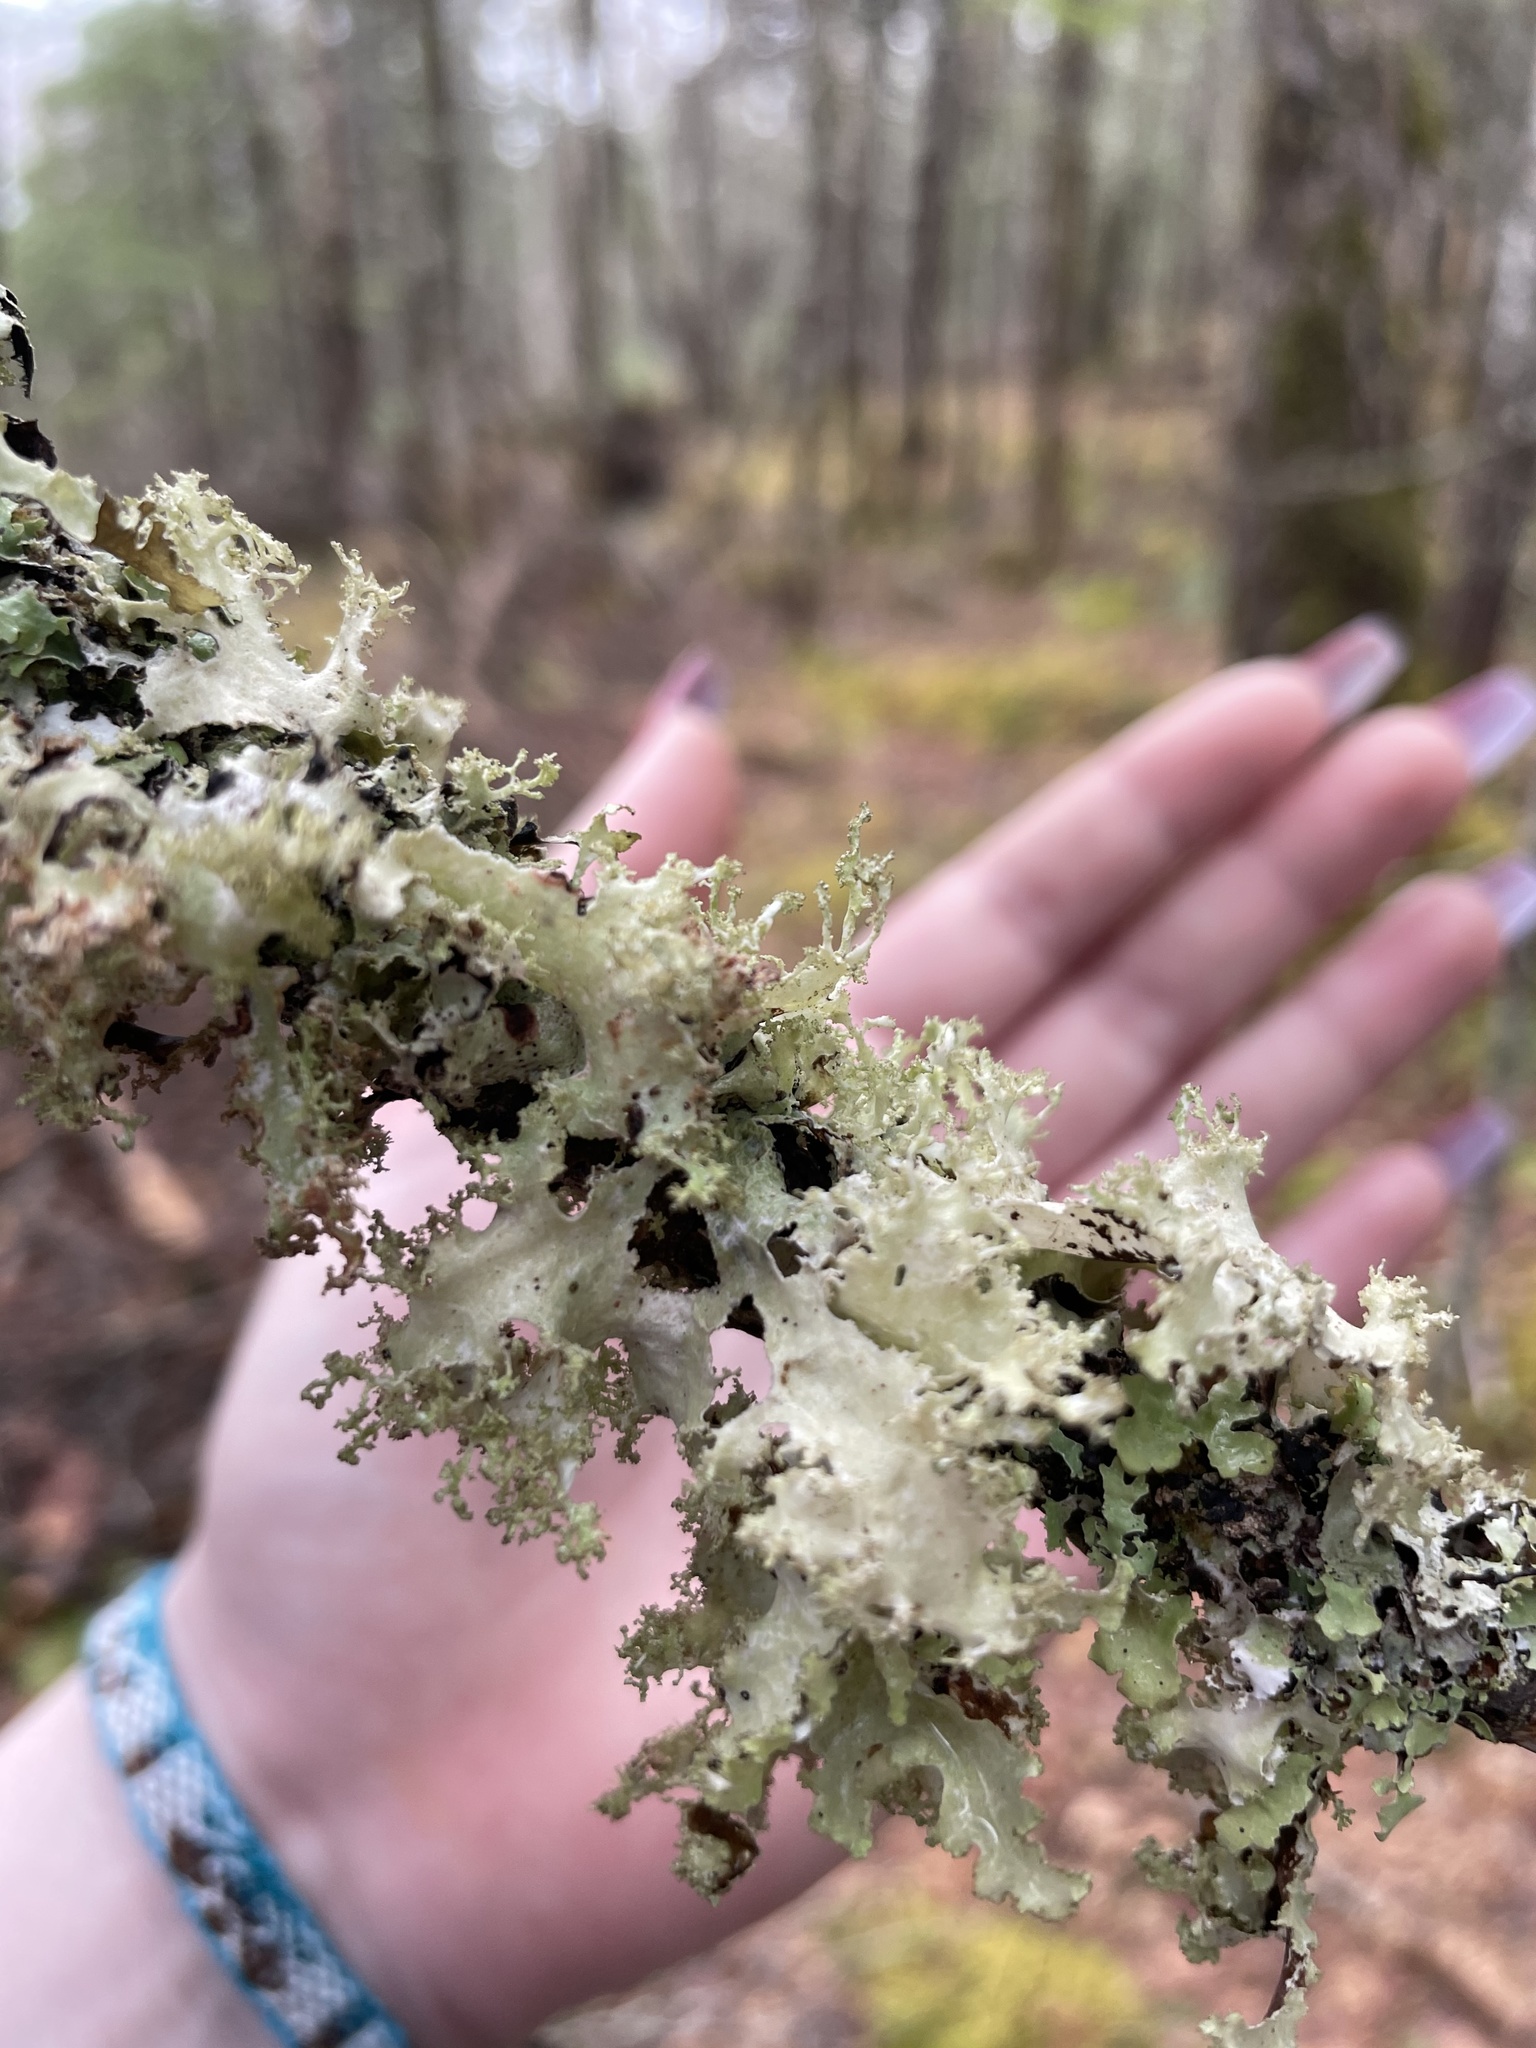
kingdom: Fungi
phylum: Ascomycota
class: Lecanoromycetes
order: Lecanorales
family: Parmeliaceae
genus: Platismatia
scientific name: Platismatia glauca
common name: Varied rag lichen
